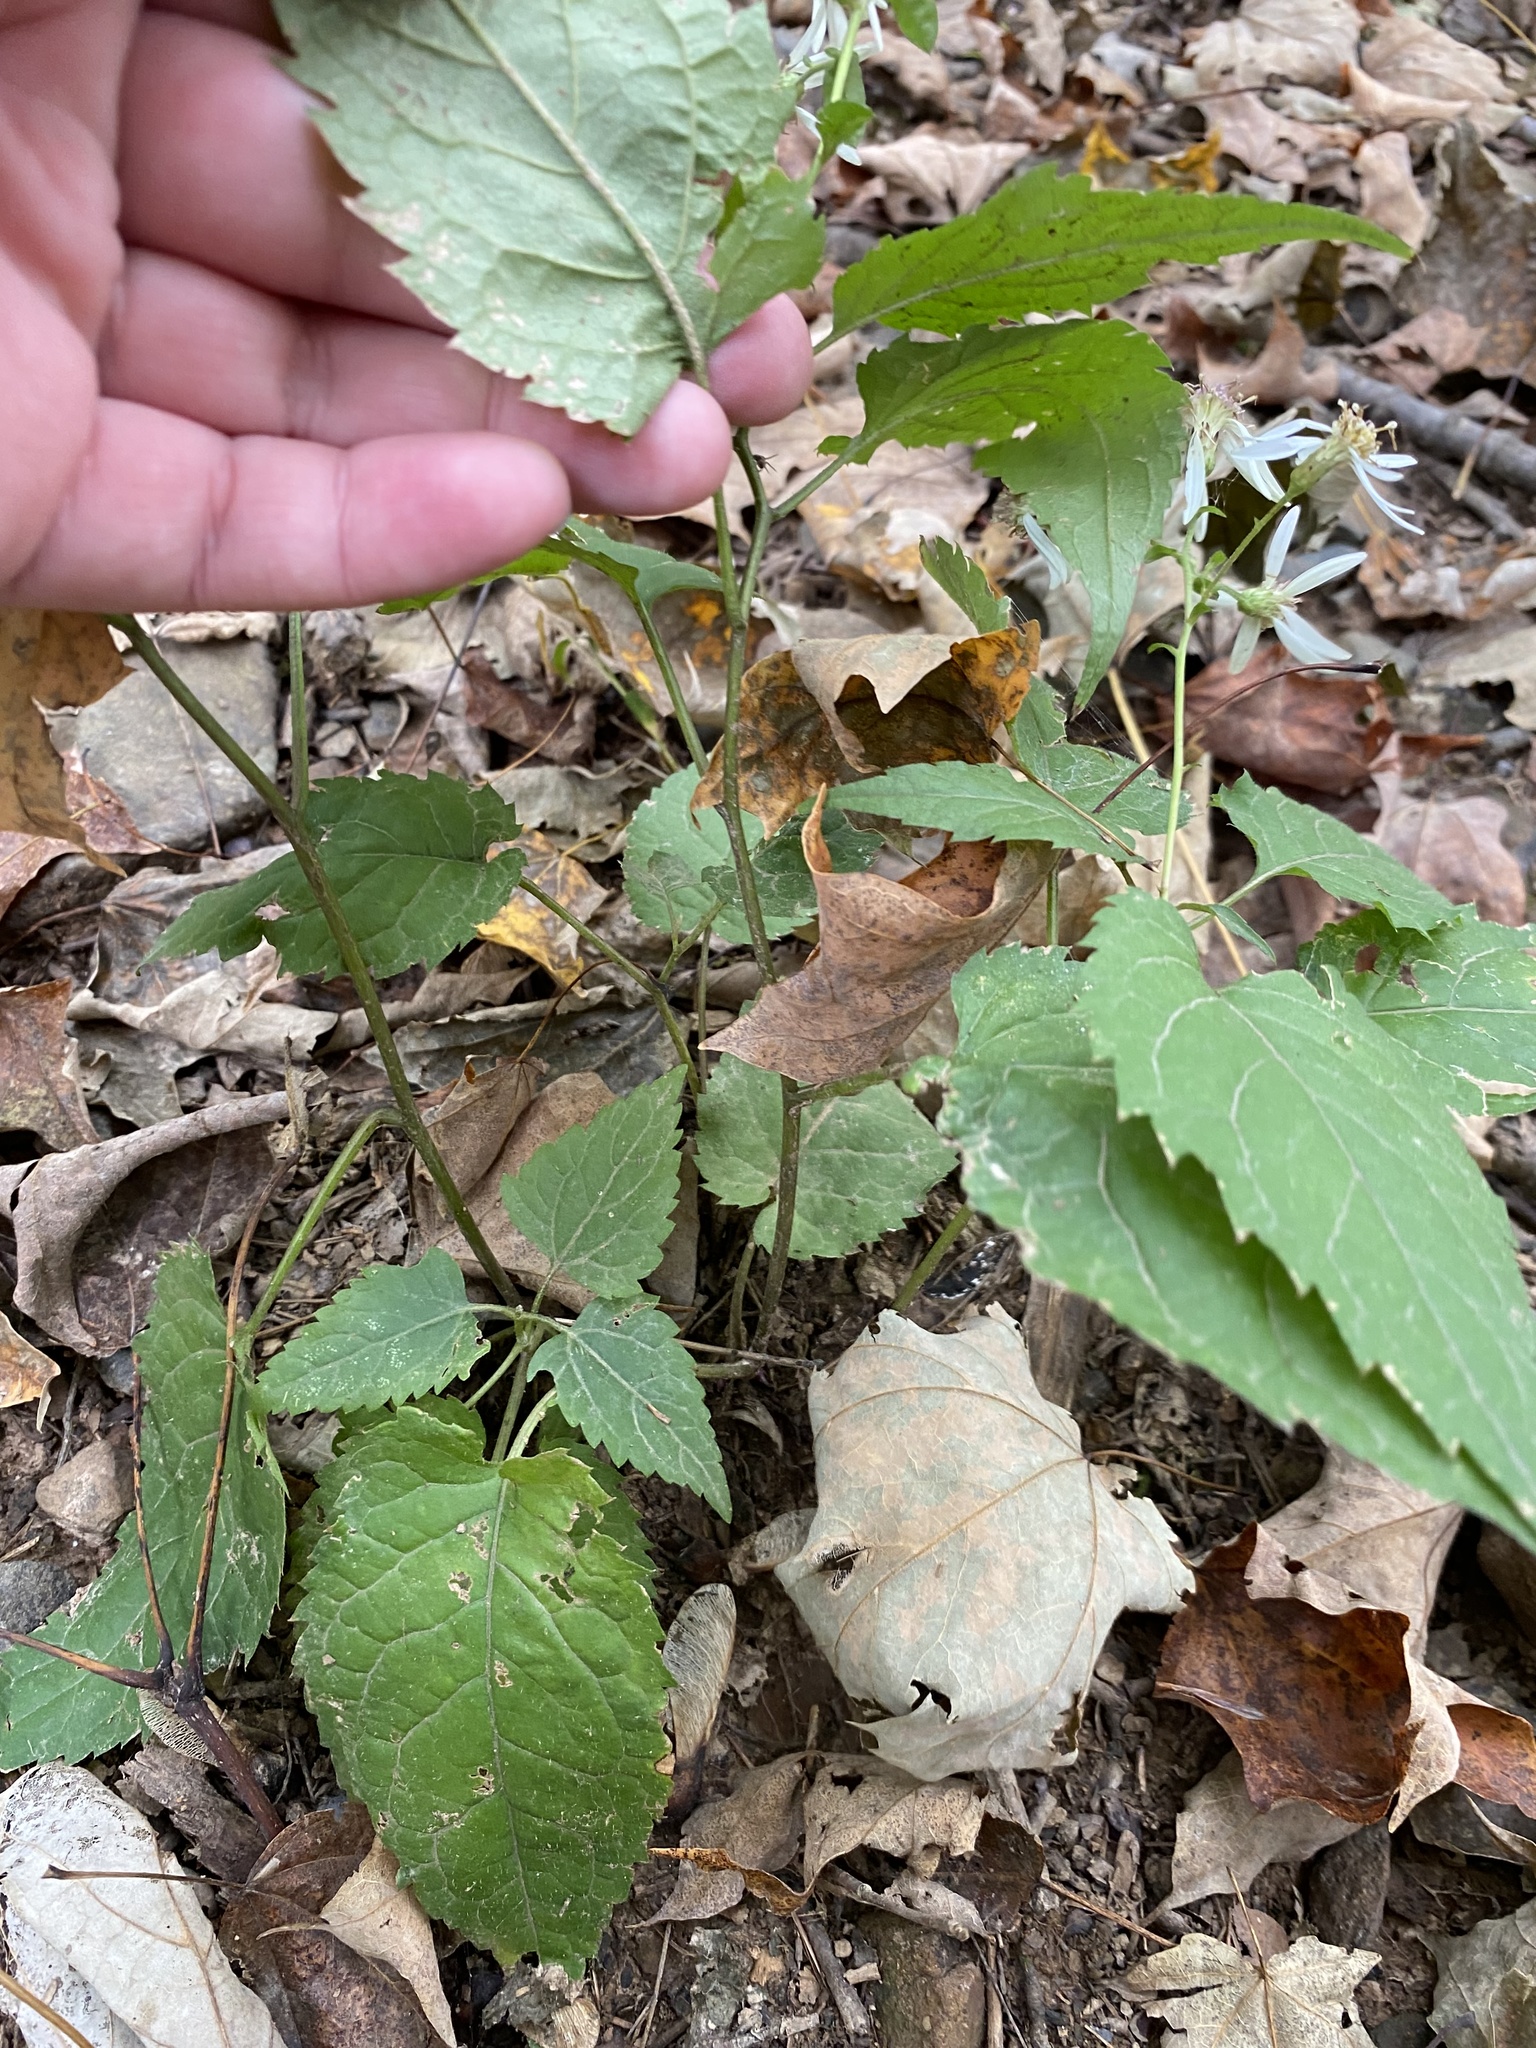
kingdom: Plantae
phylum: Tracheophyta
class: Magnoliopsida
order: Asterales
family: Asteraceae
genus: Eurybia
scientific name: Eurybia divaricata
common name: White wood aster
